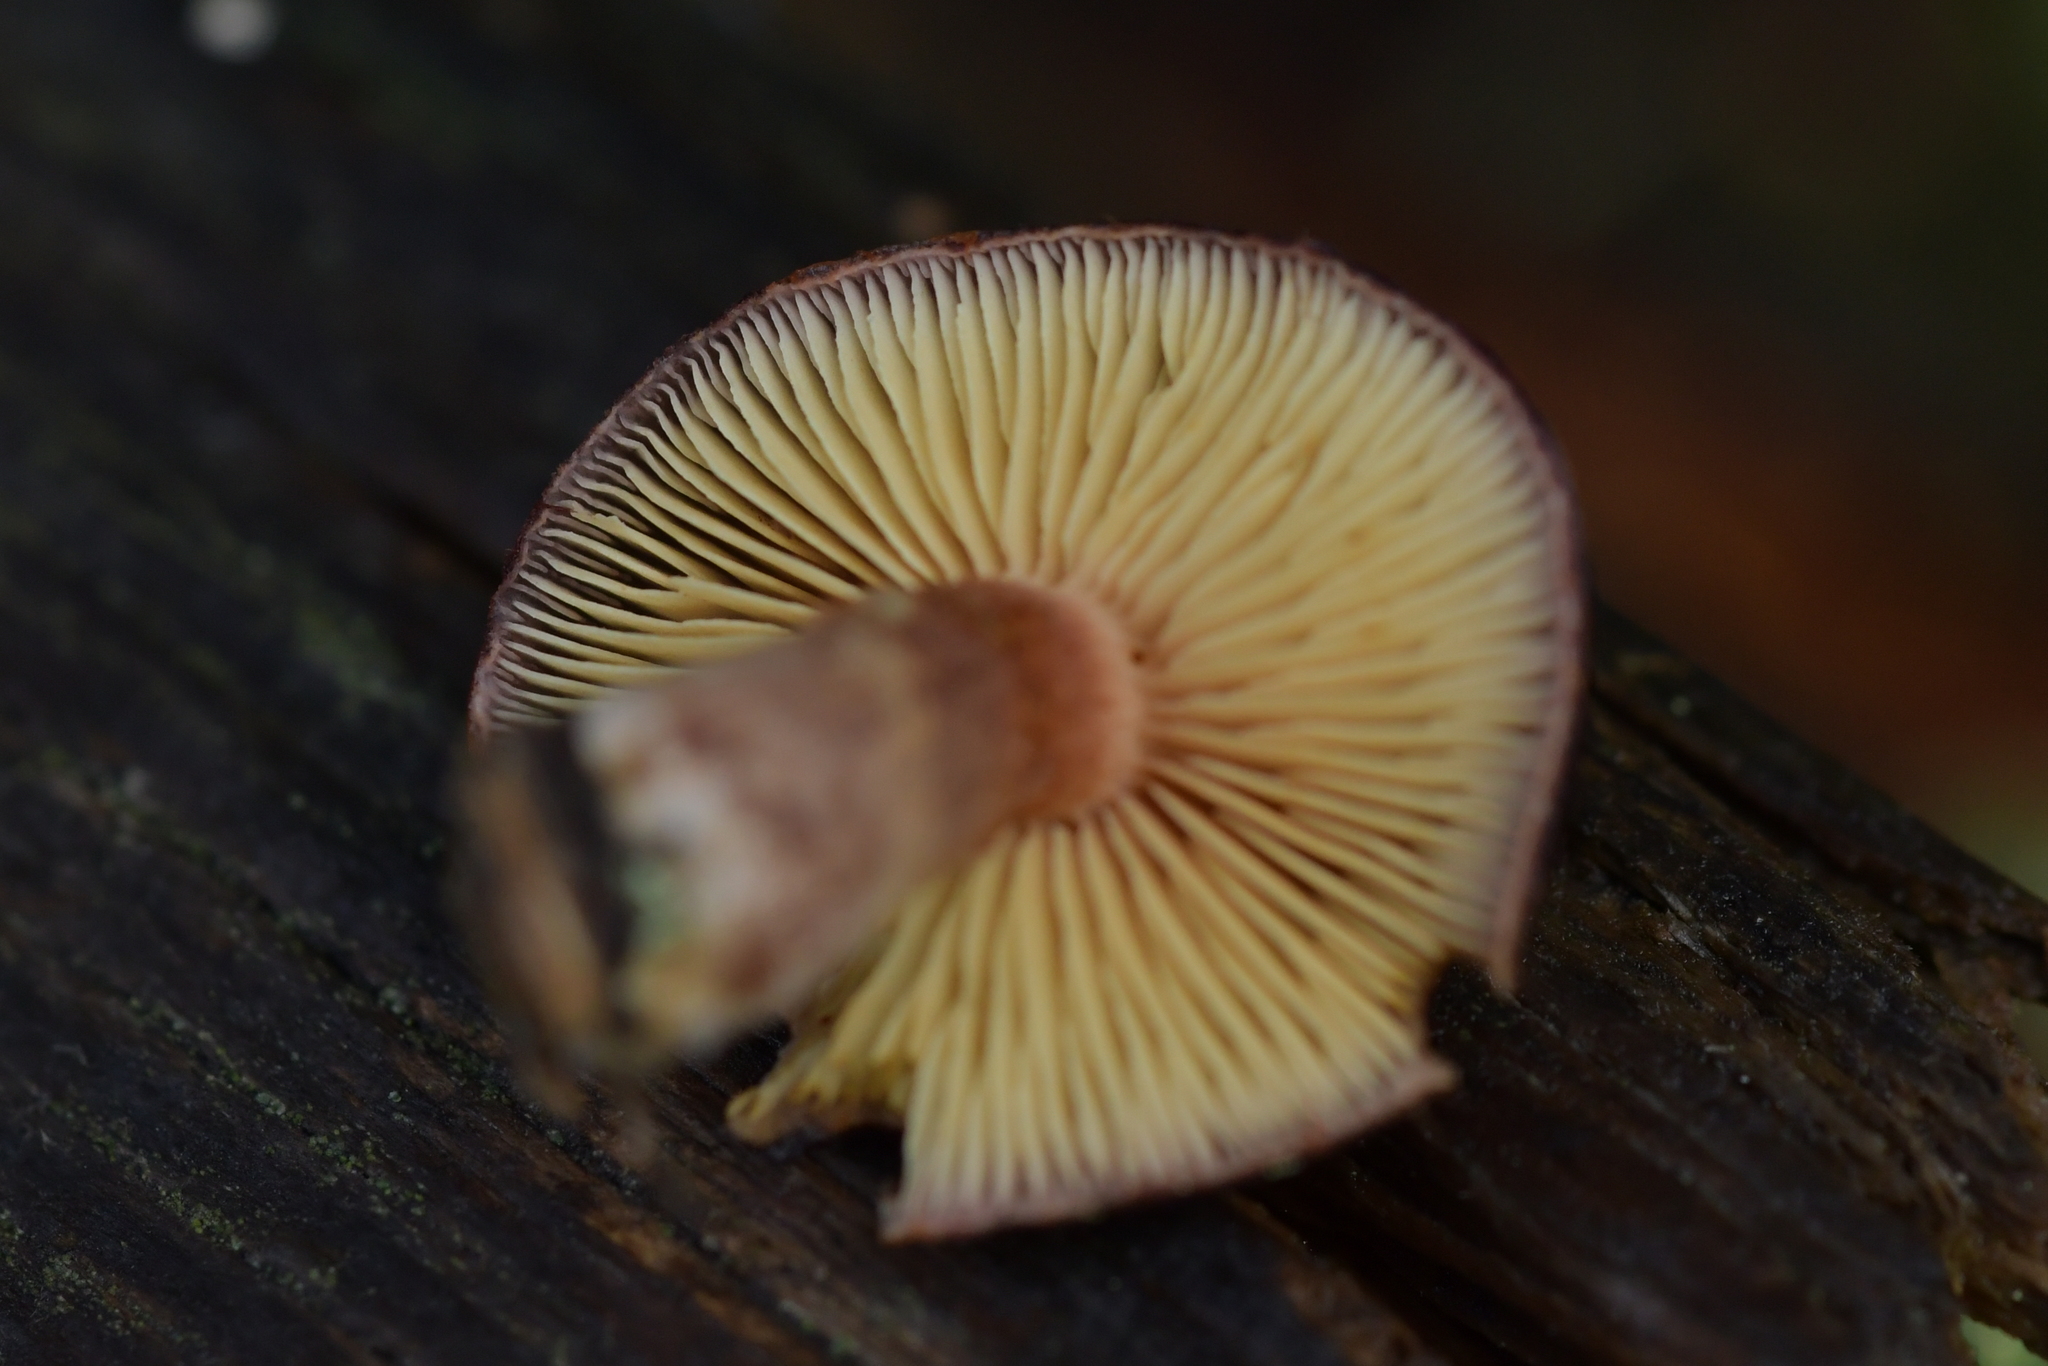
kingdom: Fungi
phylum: Basidiomycota
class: Agaricomycetes
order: Agaricales
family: Hymenogastraceae
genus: Gymnopilus
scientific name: Gymnopilus purpuratus
